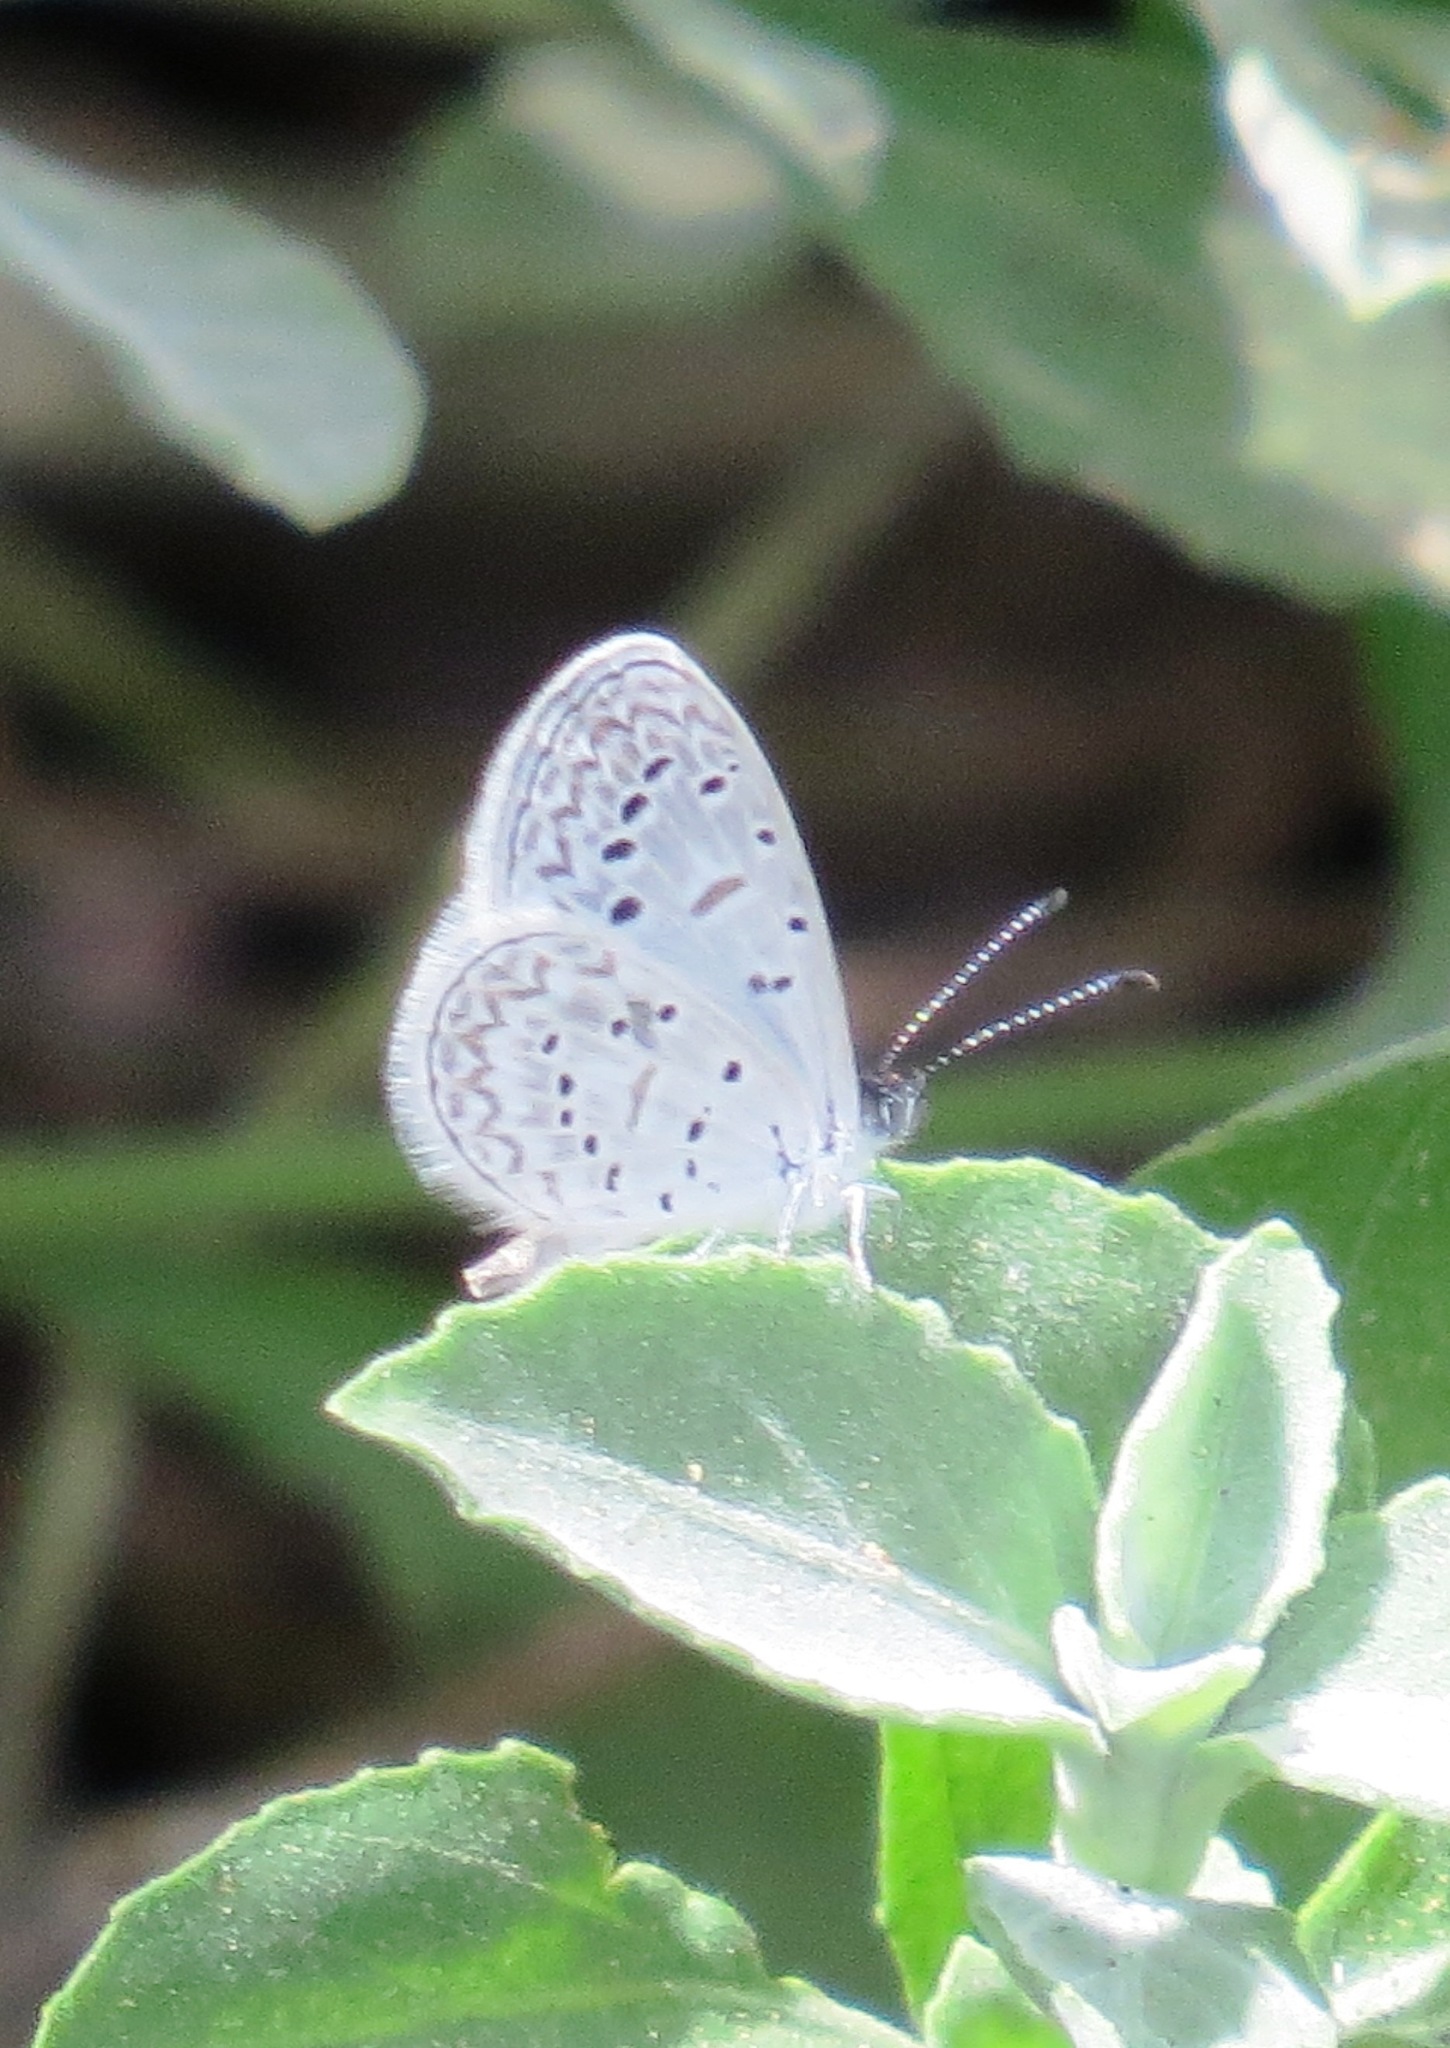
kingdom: Animalia
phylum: Arthropoda
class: Insecta
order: Lepidoptera
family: Lycaenidae
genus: Lycaena
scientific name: Lycaena cyna
